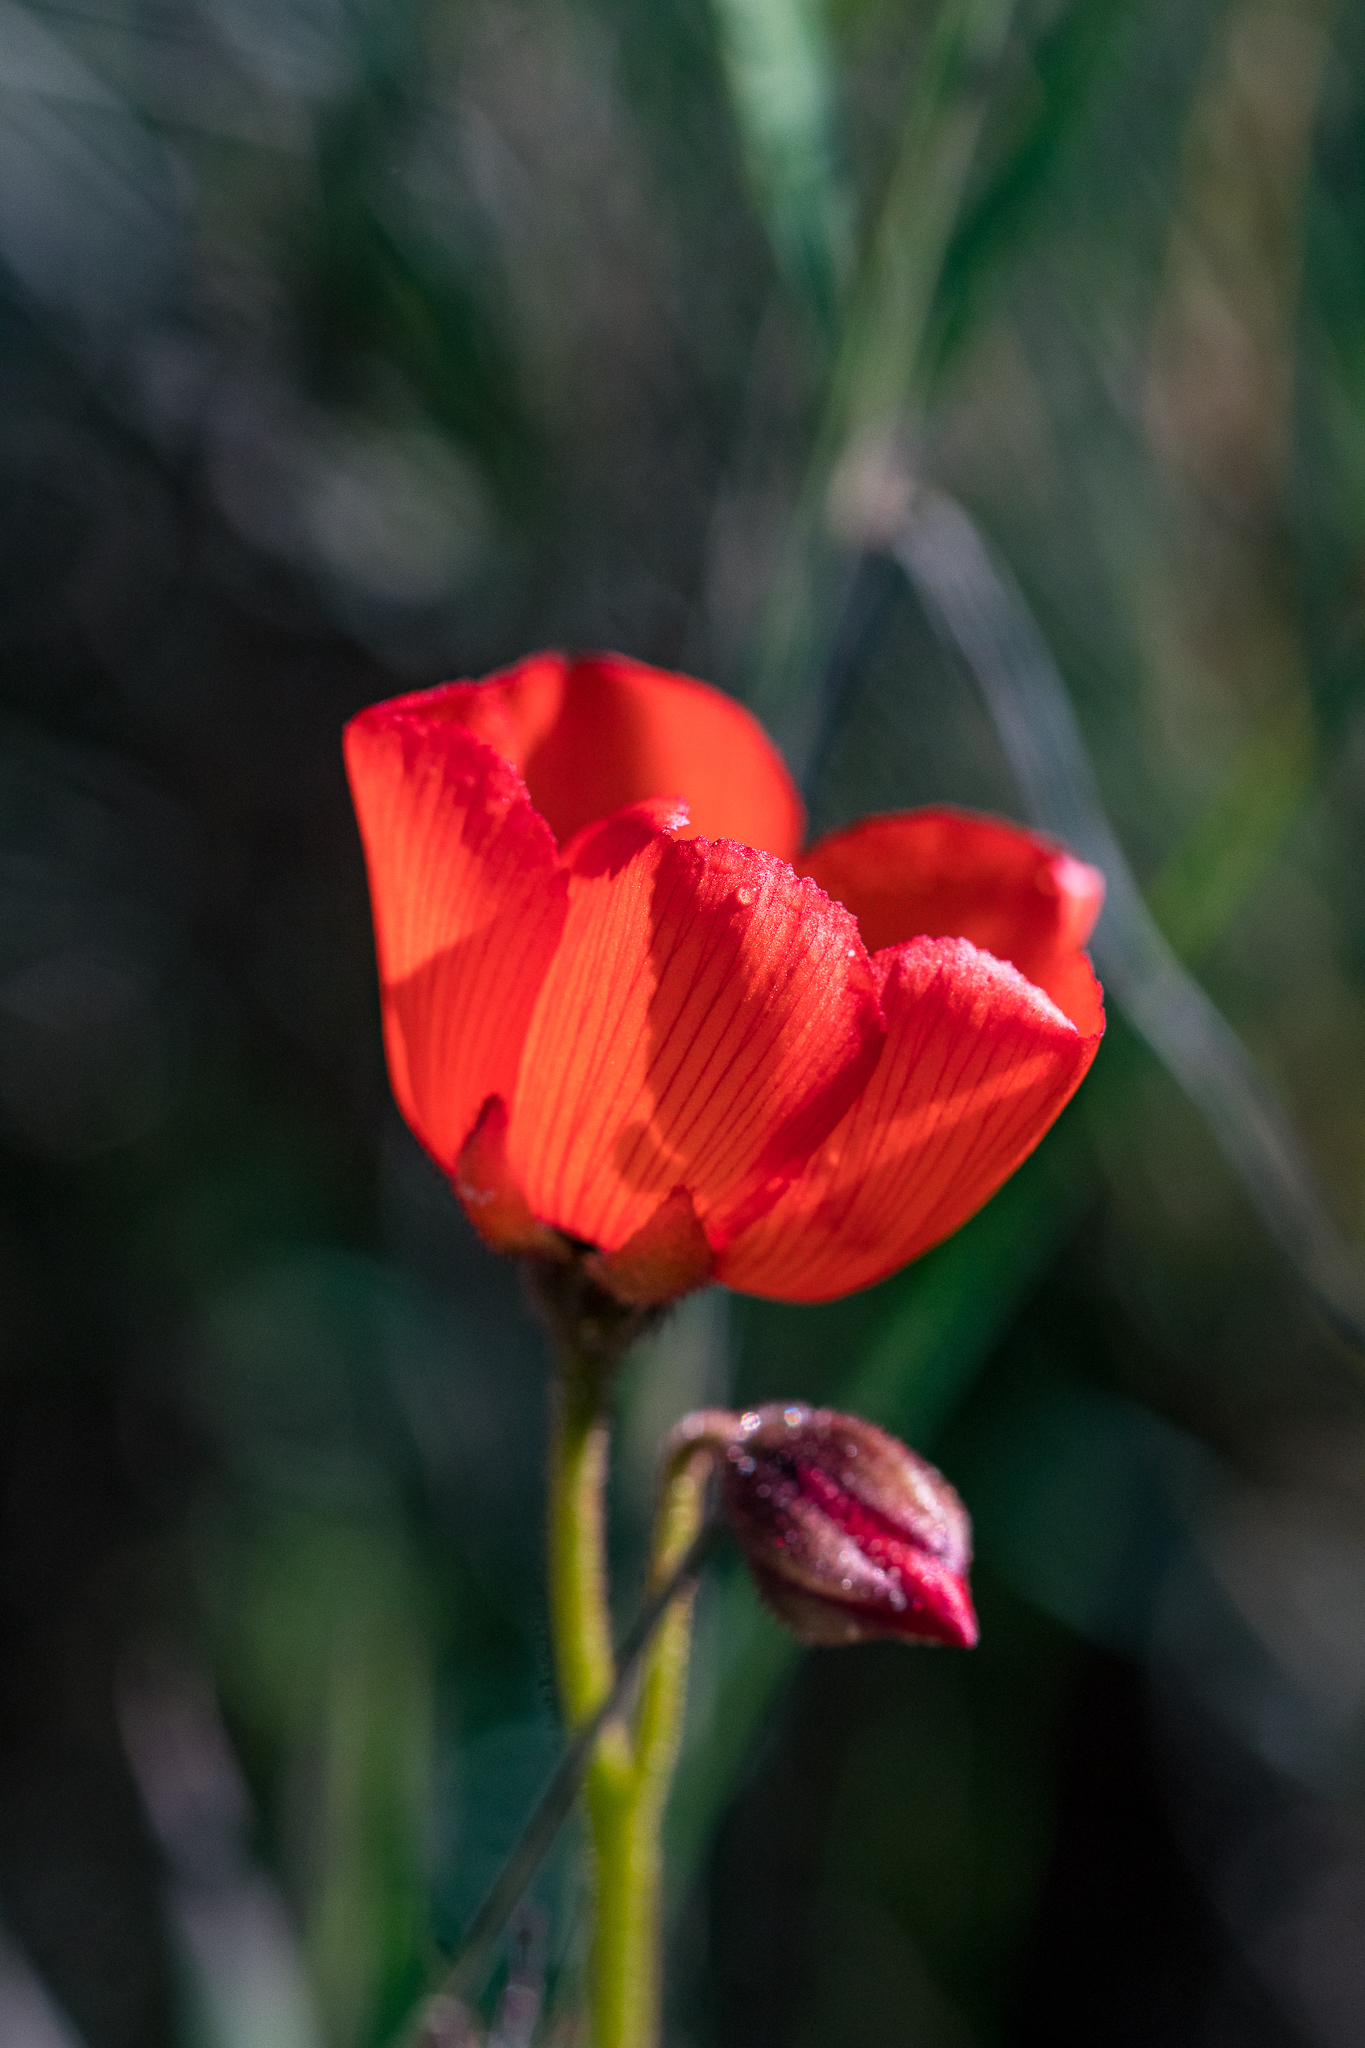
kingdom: Plantae
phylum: Tracheophyta
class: Magnoliopsida
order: Caryophyllales
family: Droseraceae
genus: Drosera
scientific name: Drosera cistiflora
